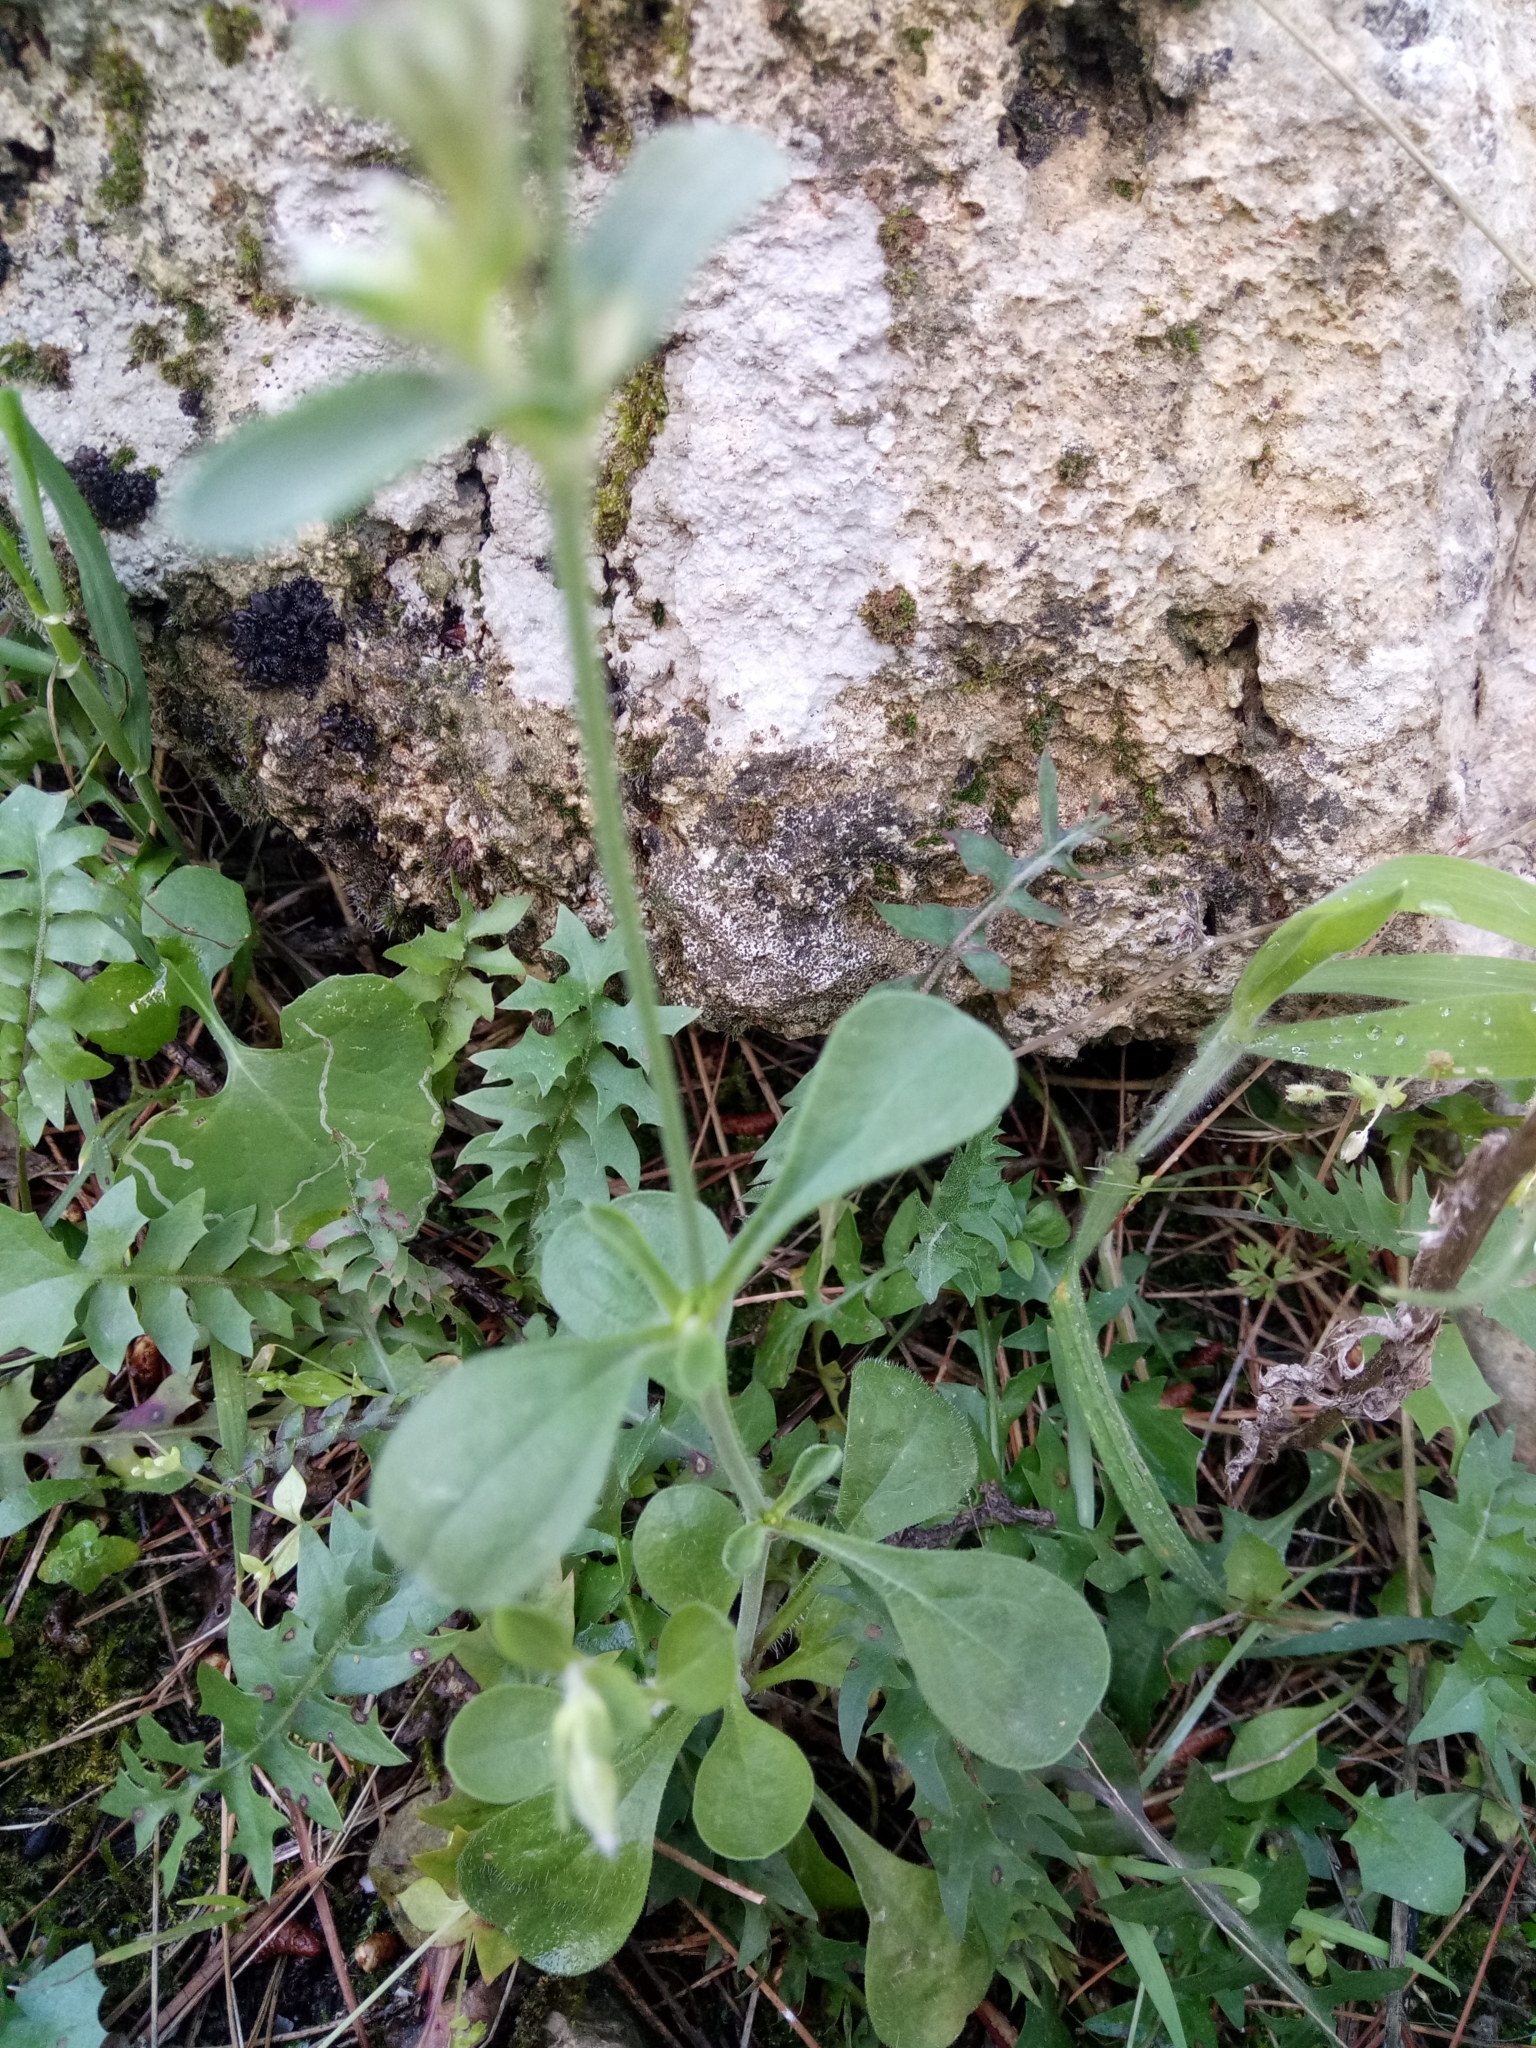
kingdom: Plantae
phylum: Tracheophyta
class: Magnoliopsida
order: Caryophyllales
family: Caryophyllaceae
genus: Silene
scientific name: Silene secundiflora
